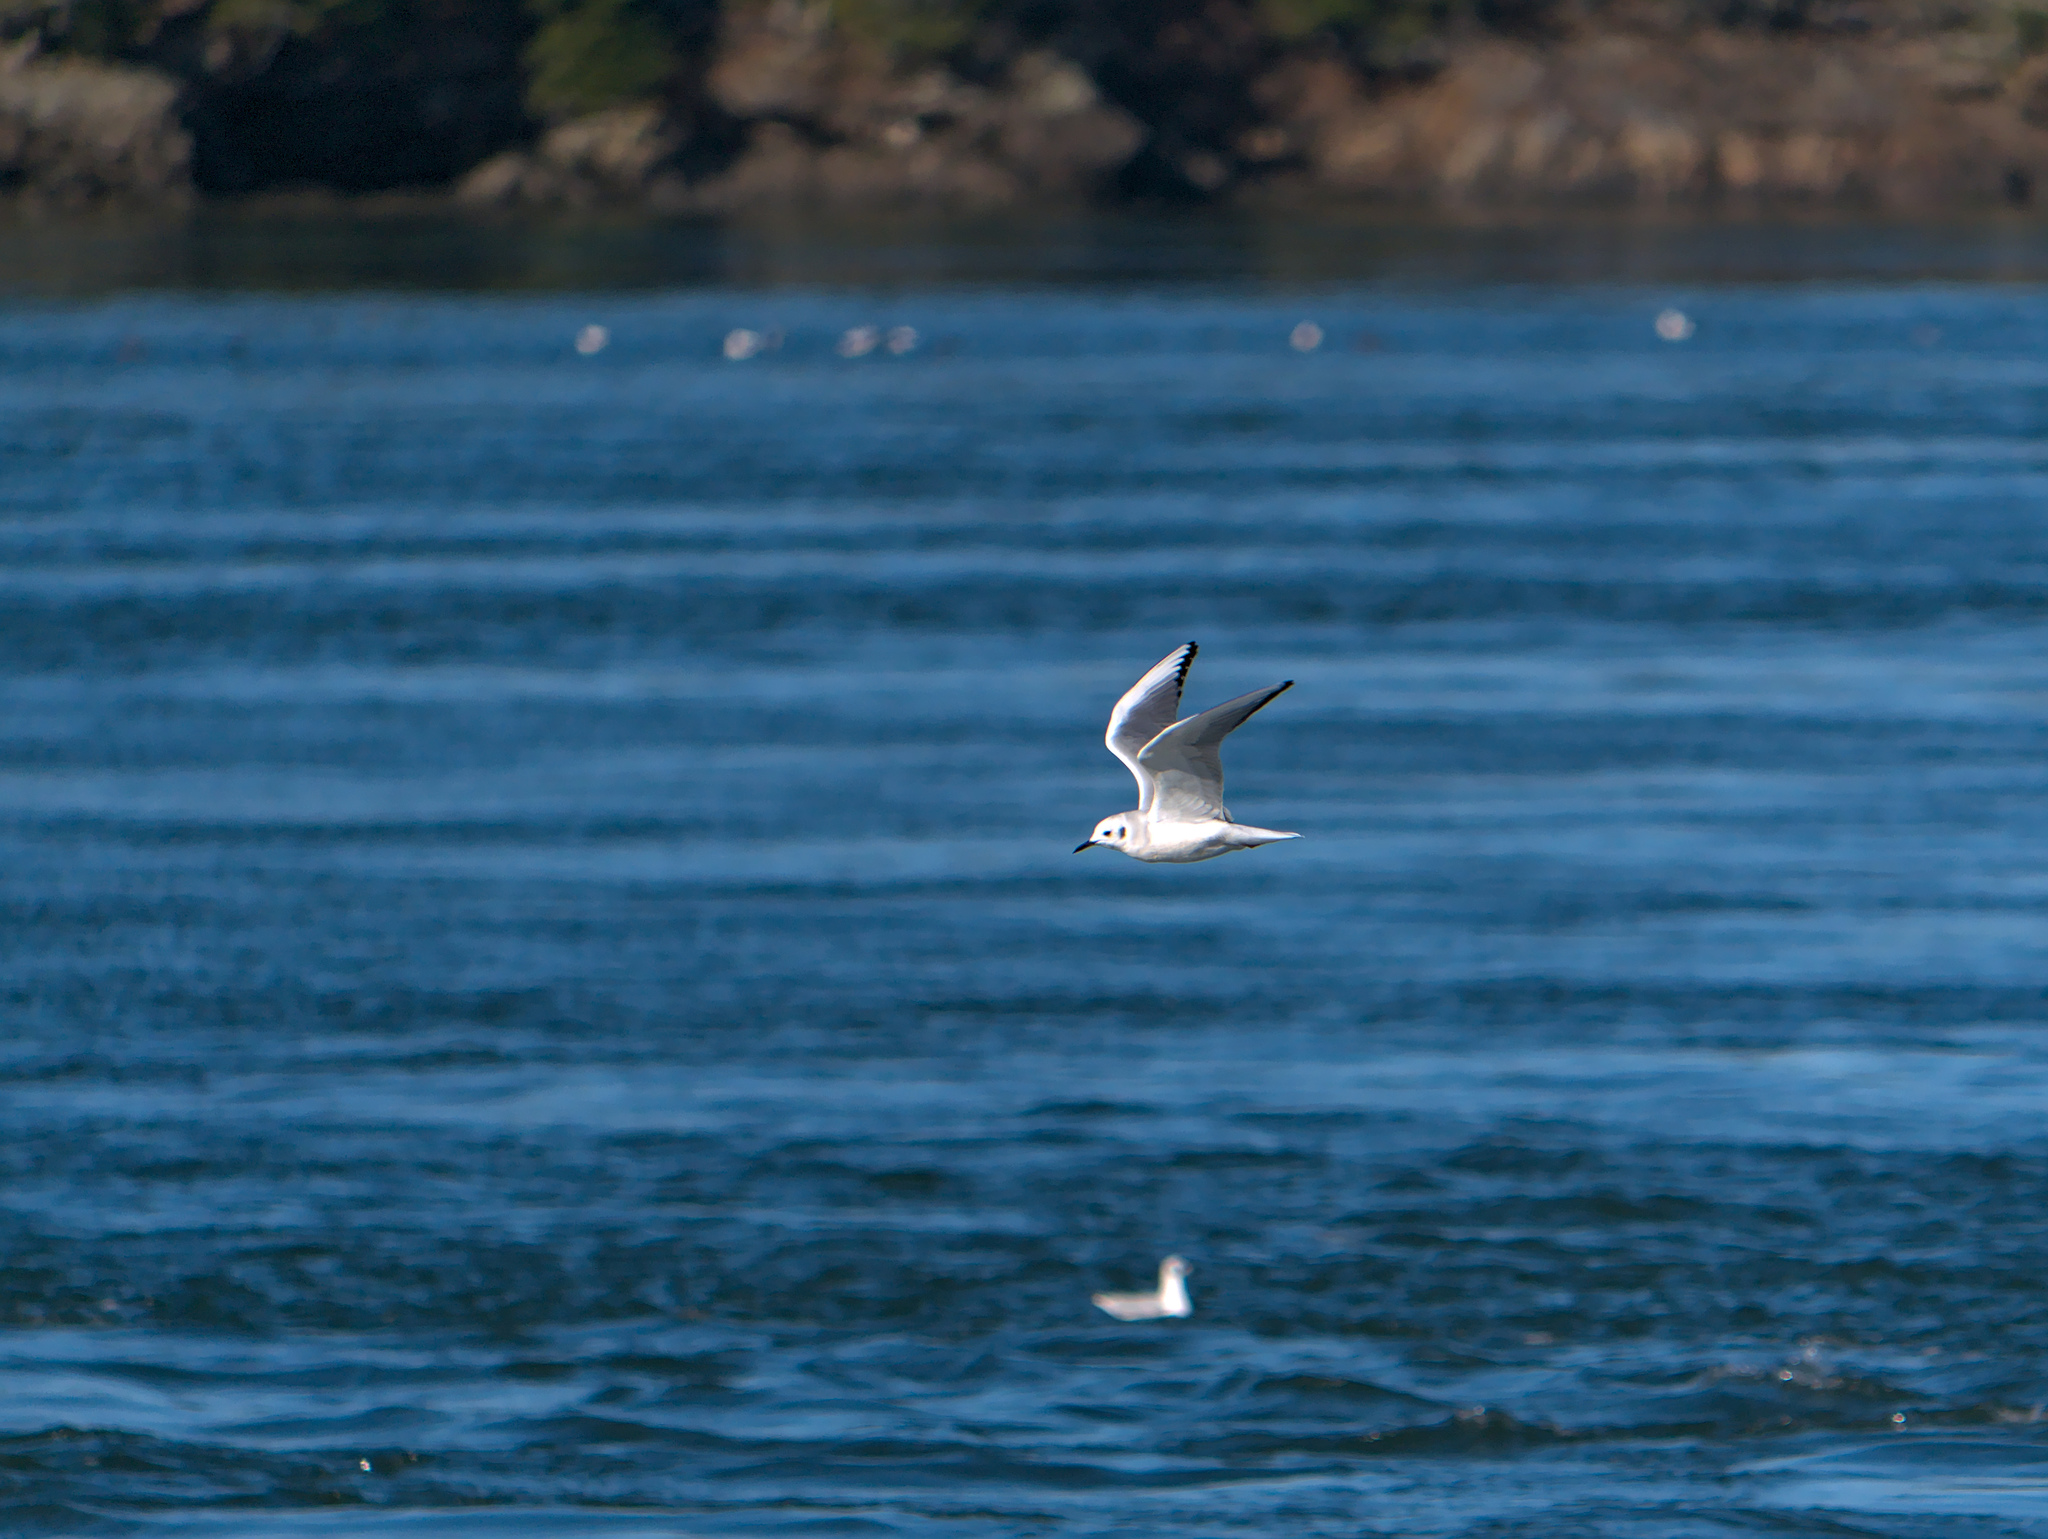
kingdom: Animalia
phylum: Chordata
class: Aves
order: Charadriiformes
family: Laridae
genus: Chroicocephalus
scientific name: Chroicocephalus philadelphia
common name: Bonaparte's gull
